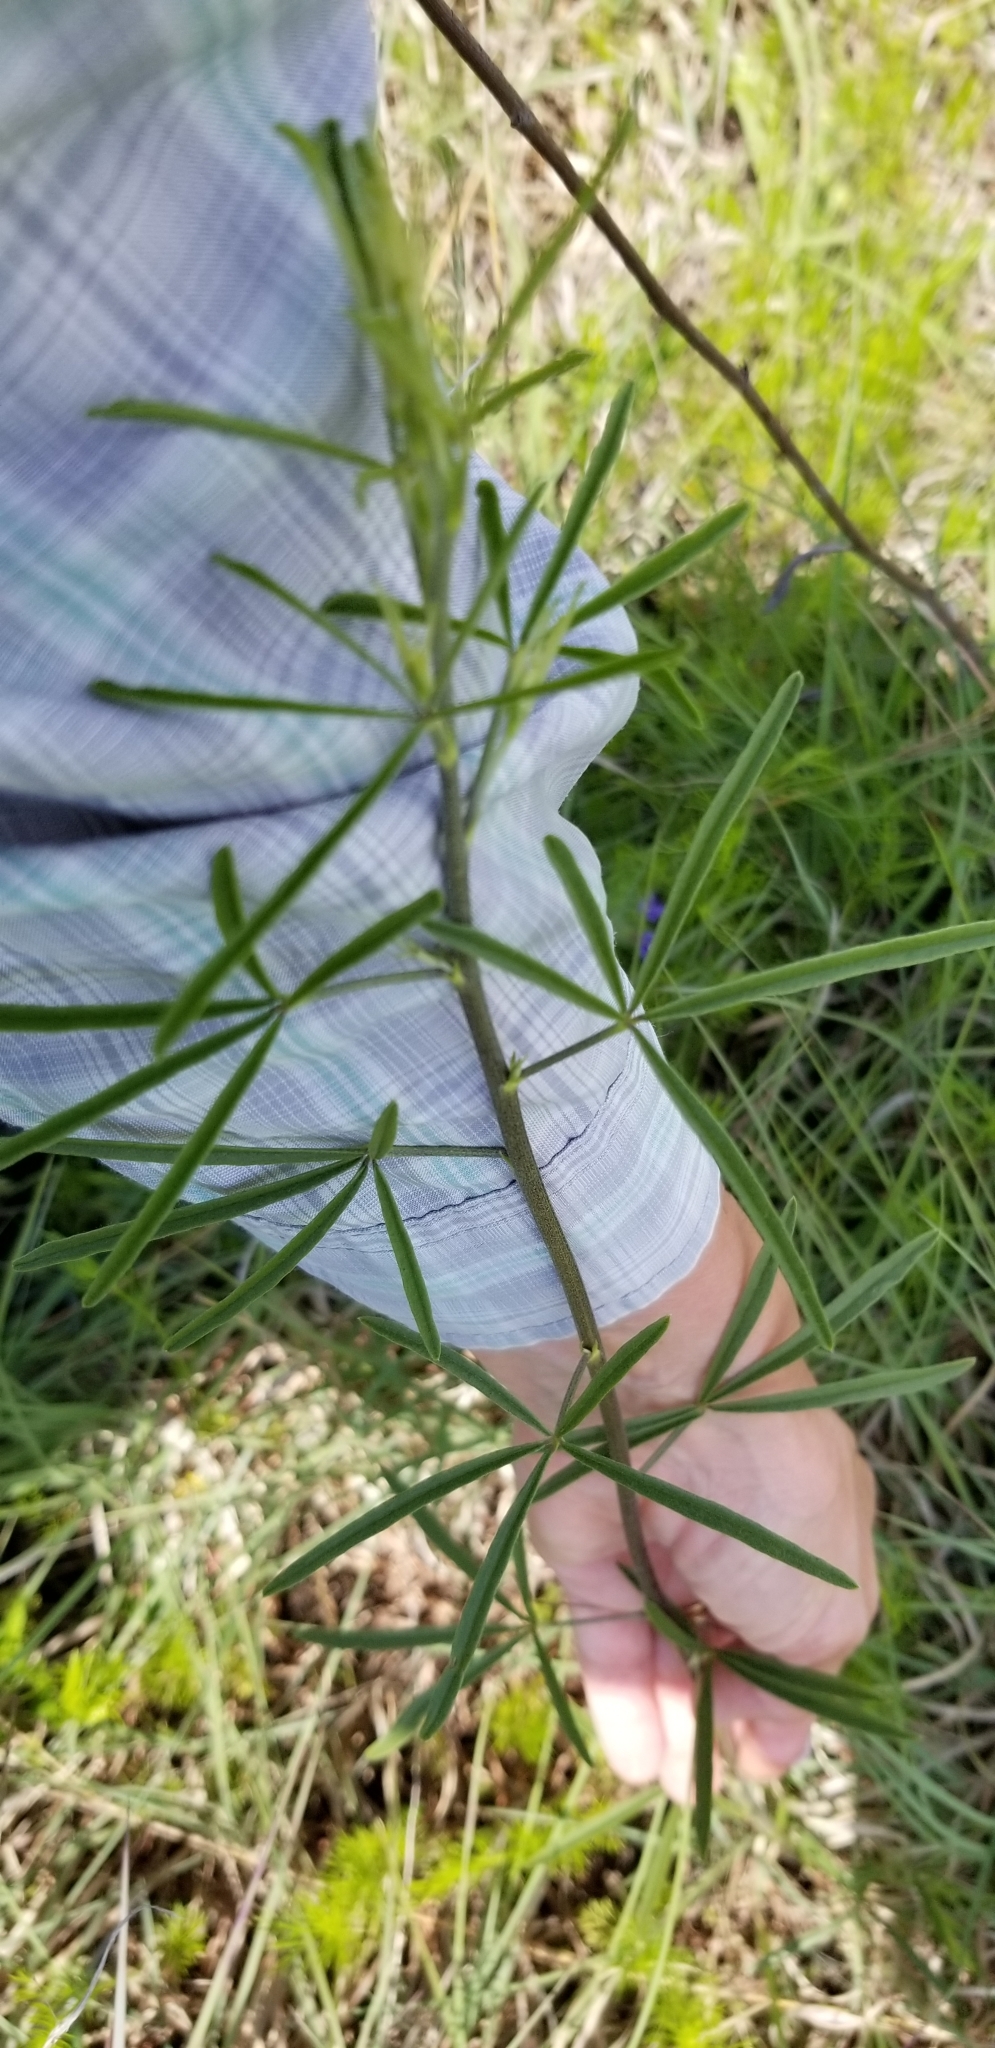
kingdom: Plantae
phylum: Tracheophyta
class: Magnoliopsida
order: Fabales
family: Fabaceae
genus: Pediomelum
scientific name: Pediomelum linearifolium
